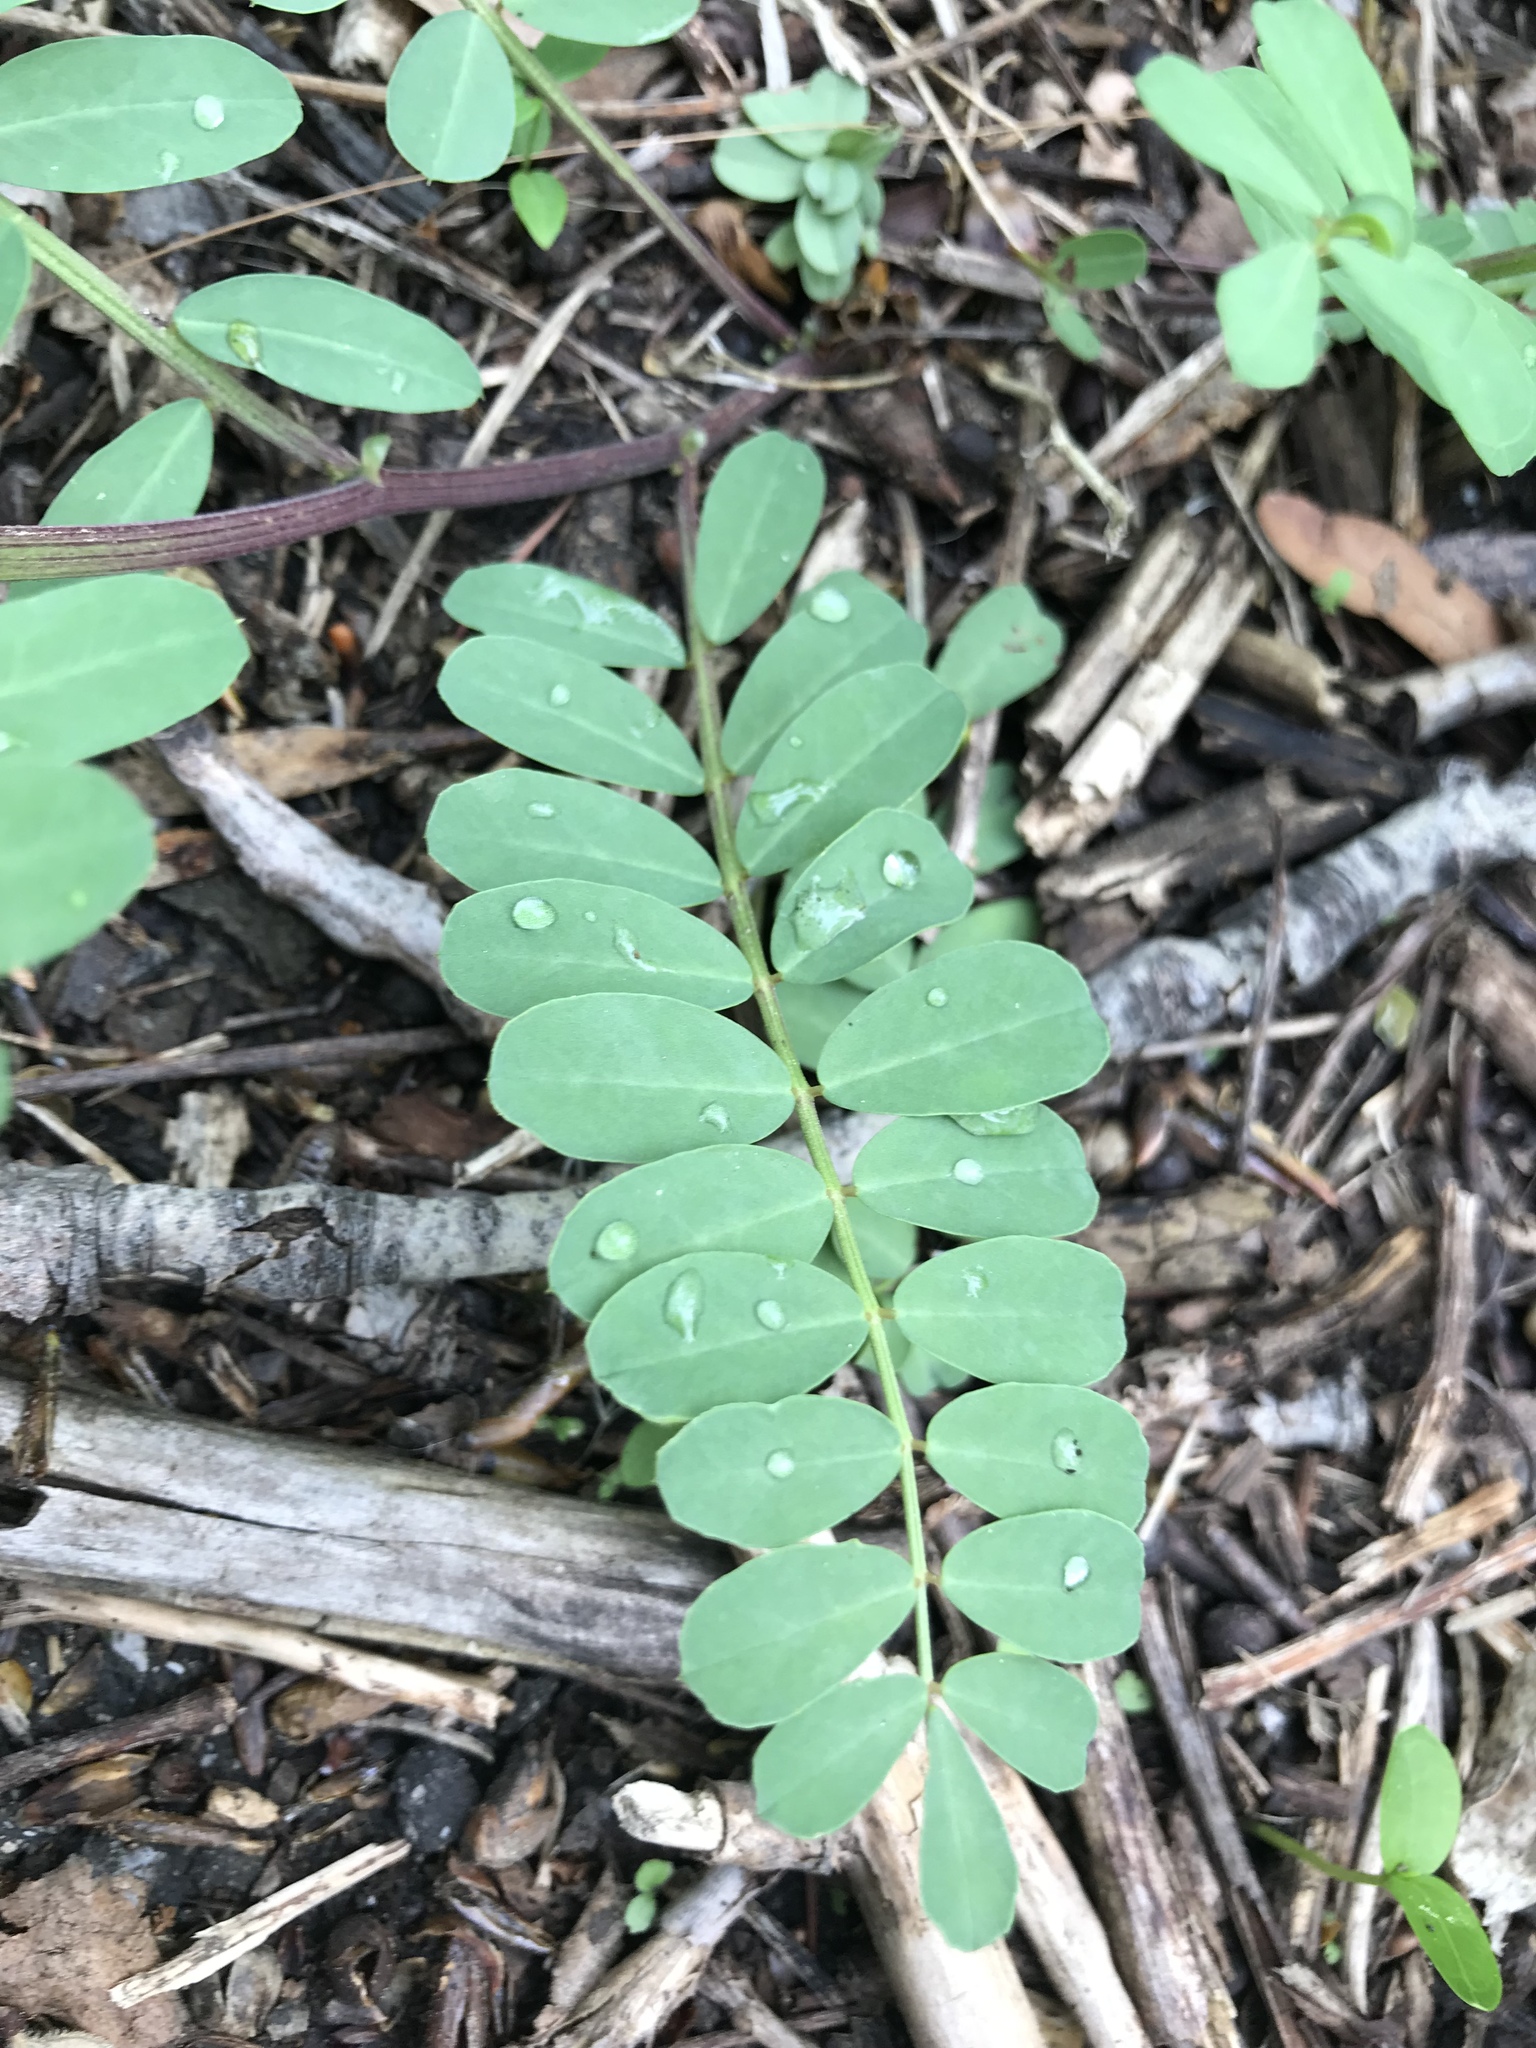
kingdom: Plantae
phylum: Tracheophyta
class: Magnoliopsida
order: Fabales
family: Fabaceae
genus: Coronilla
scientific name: Coronilla varia
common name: Crownvetch
